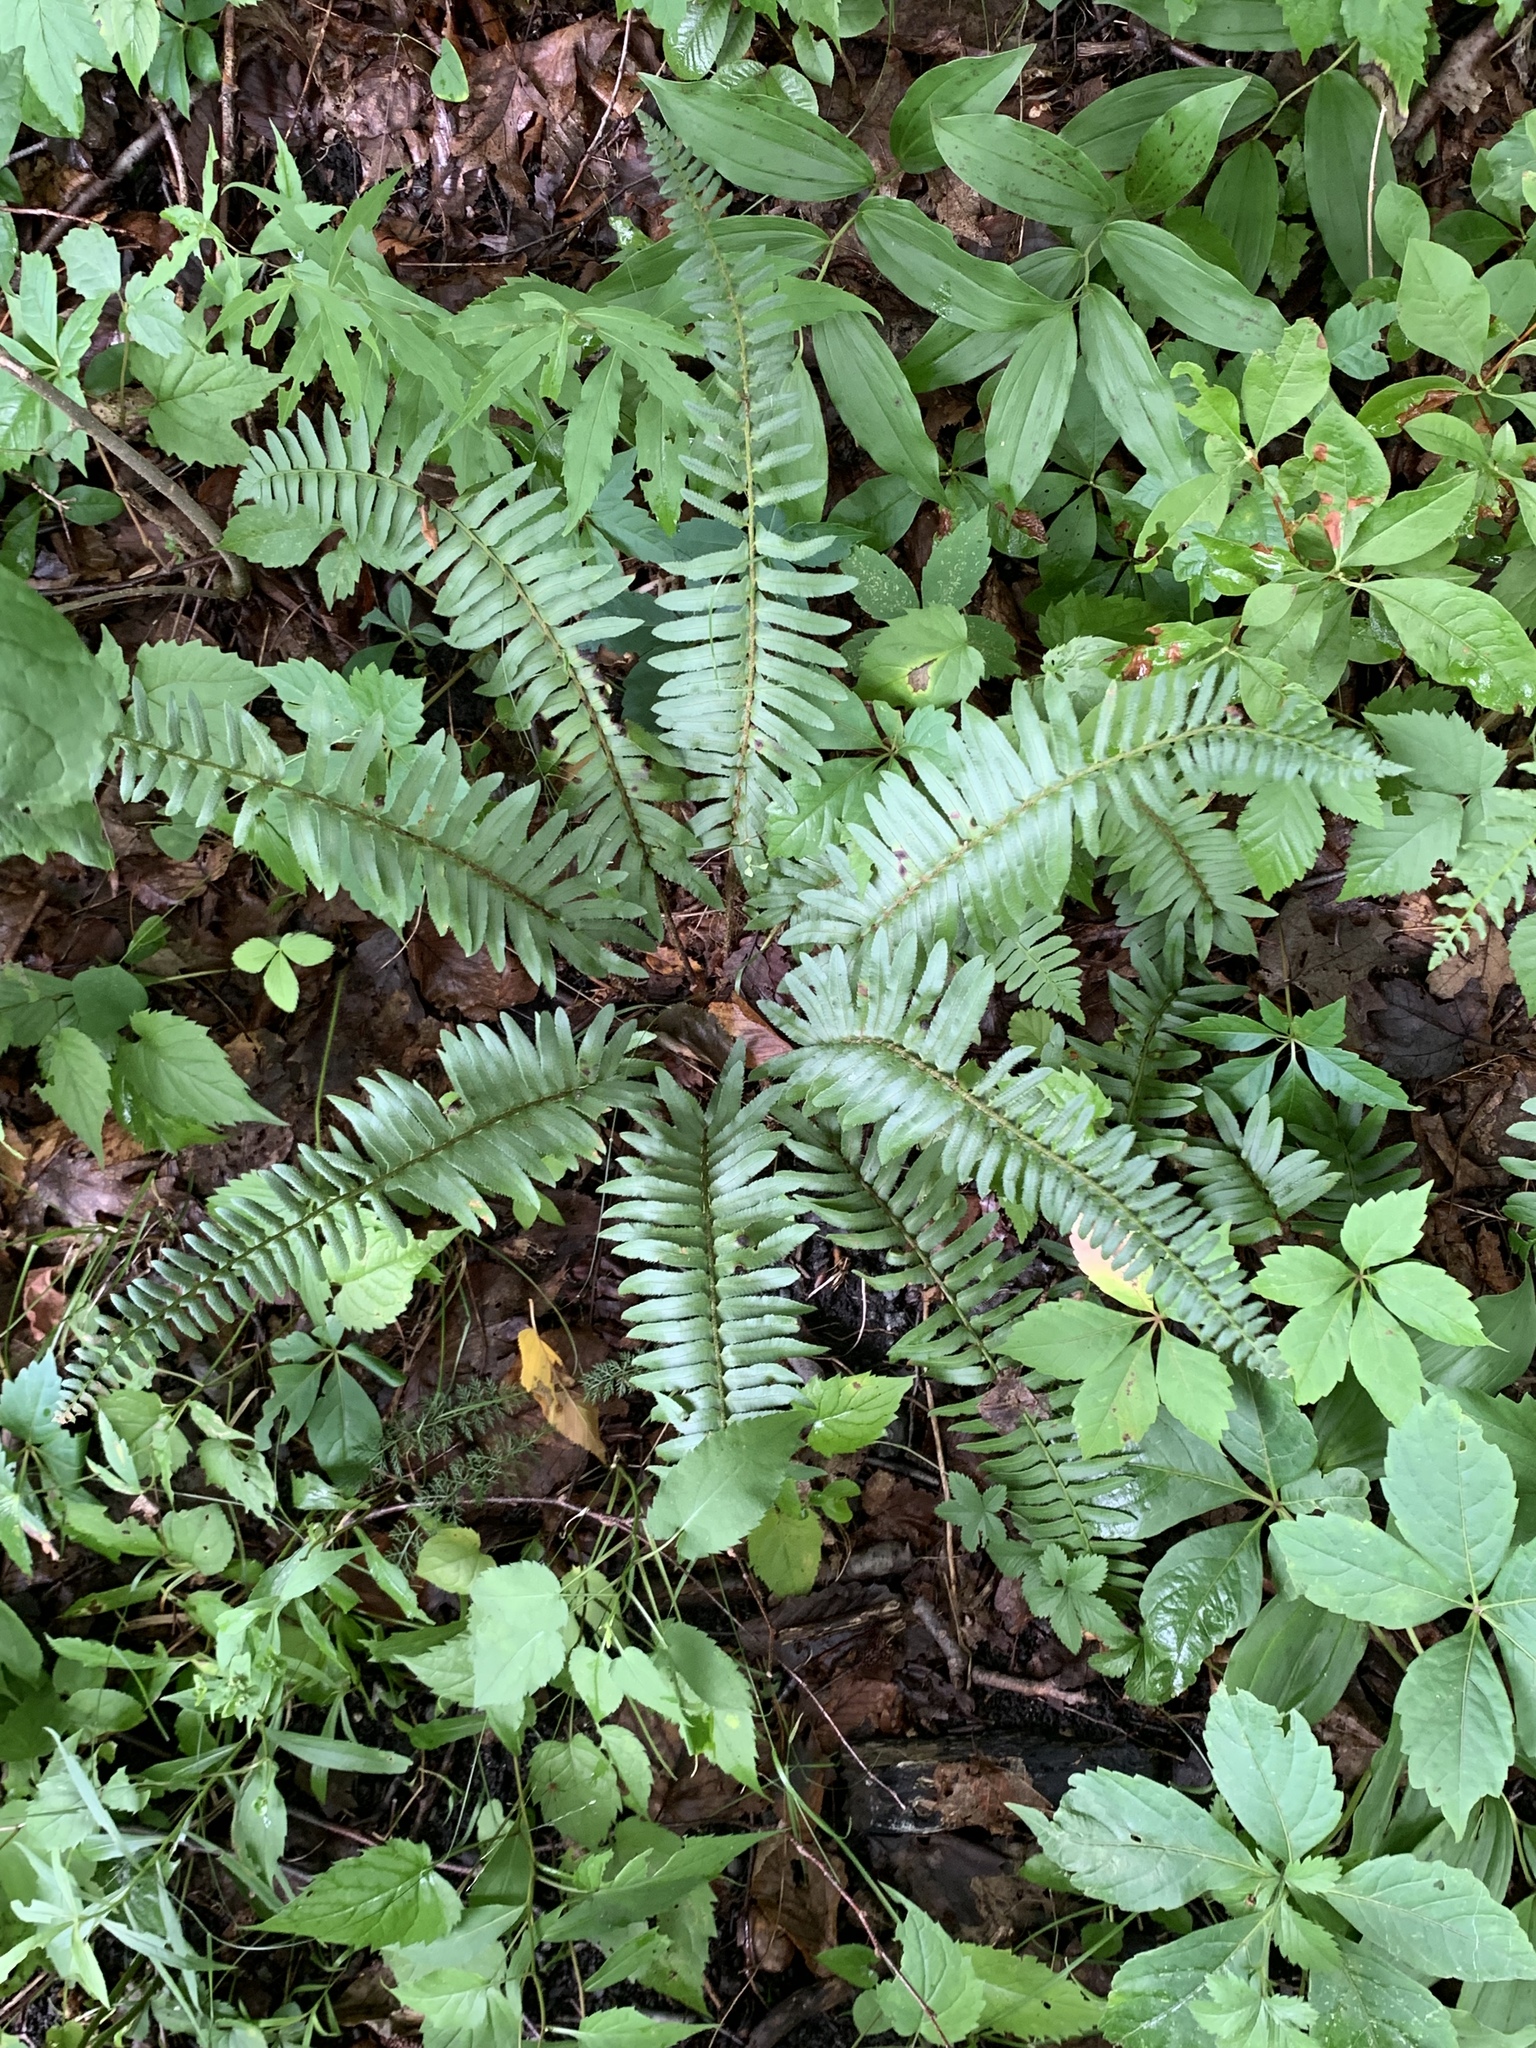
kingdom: Plantae
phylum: Tracheophyta
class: Polypodiopsida
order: Polypodiales
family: Dryopteridaceae
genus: Polystichum
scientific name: Polystichum acrostichoides
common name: Christmas fern
